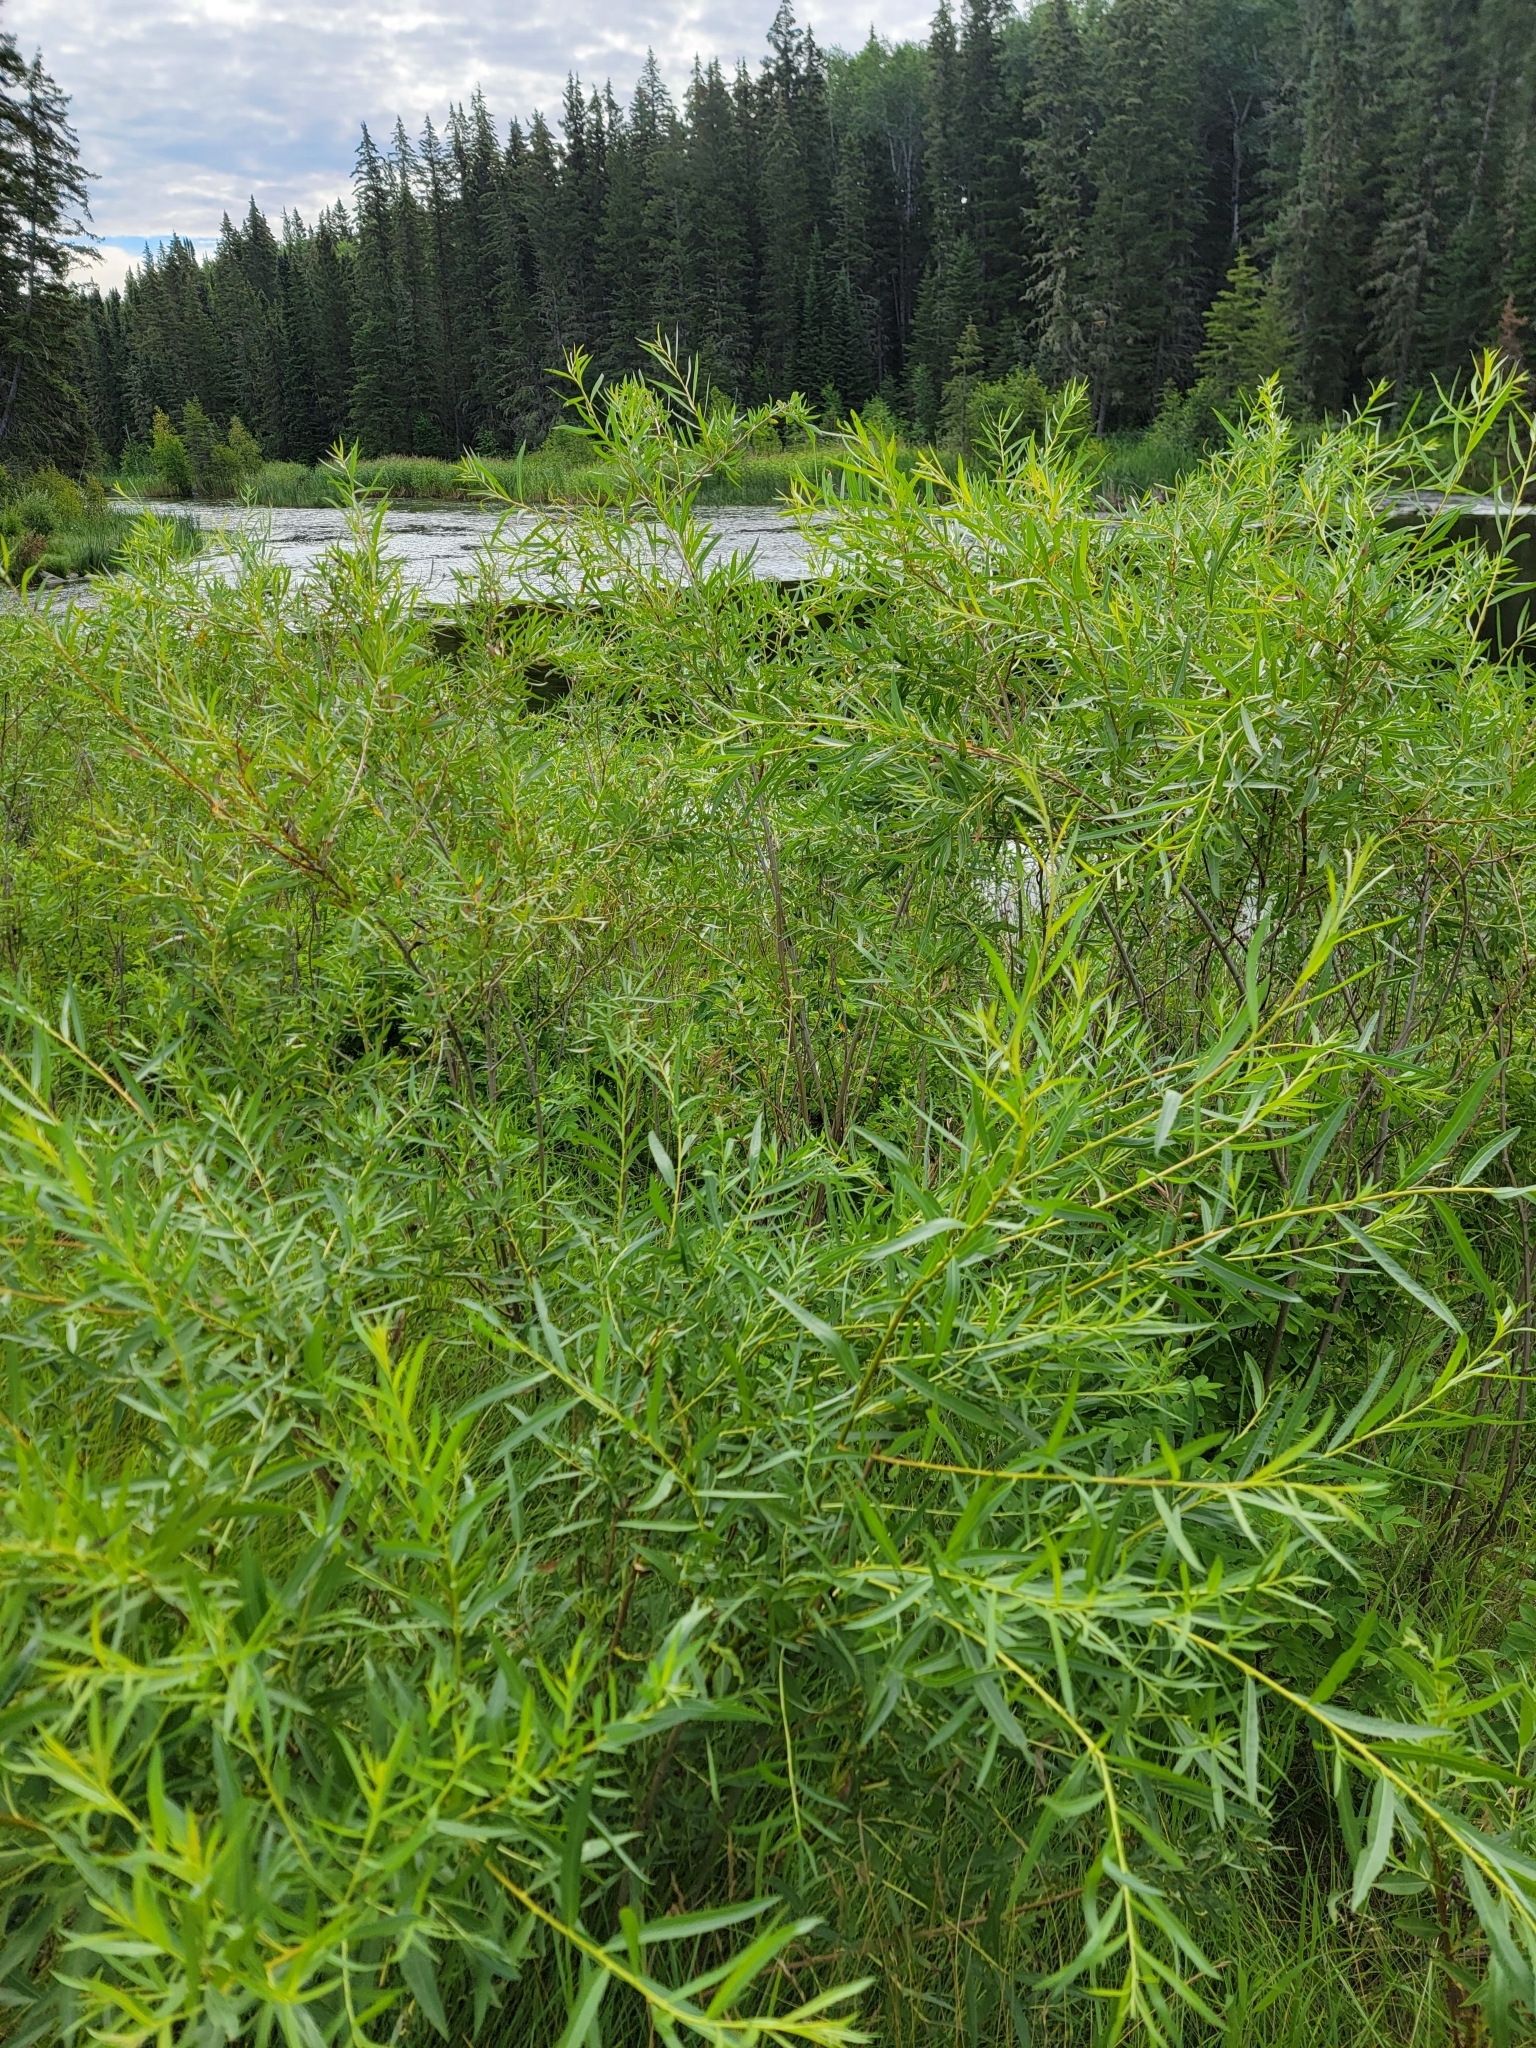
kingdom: Plantae
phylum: Tracheophyta
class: Magnoliopsida
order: Malpighiales
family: Salicaceae
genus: Salix
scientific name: Salix interior
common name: Sandbar willow
